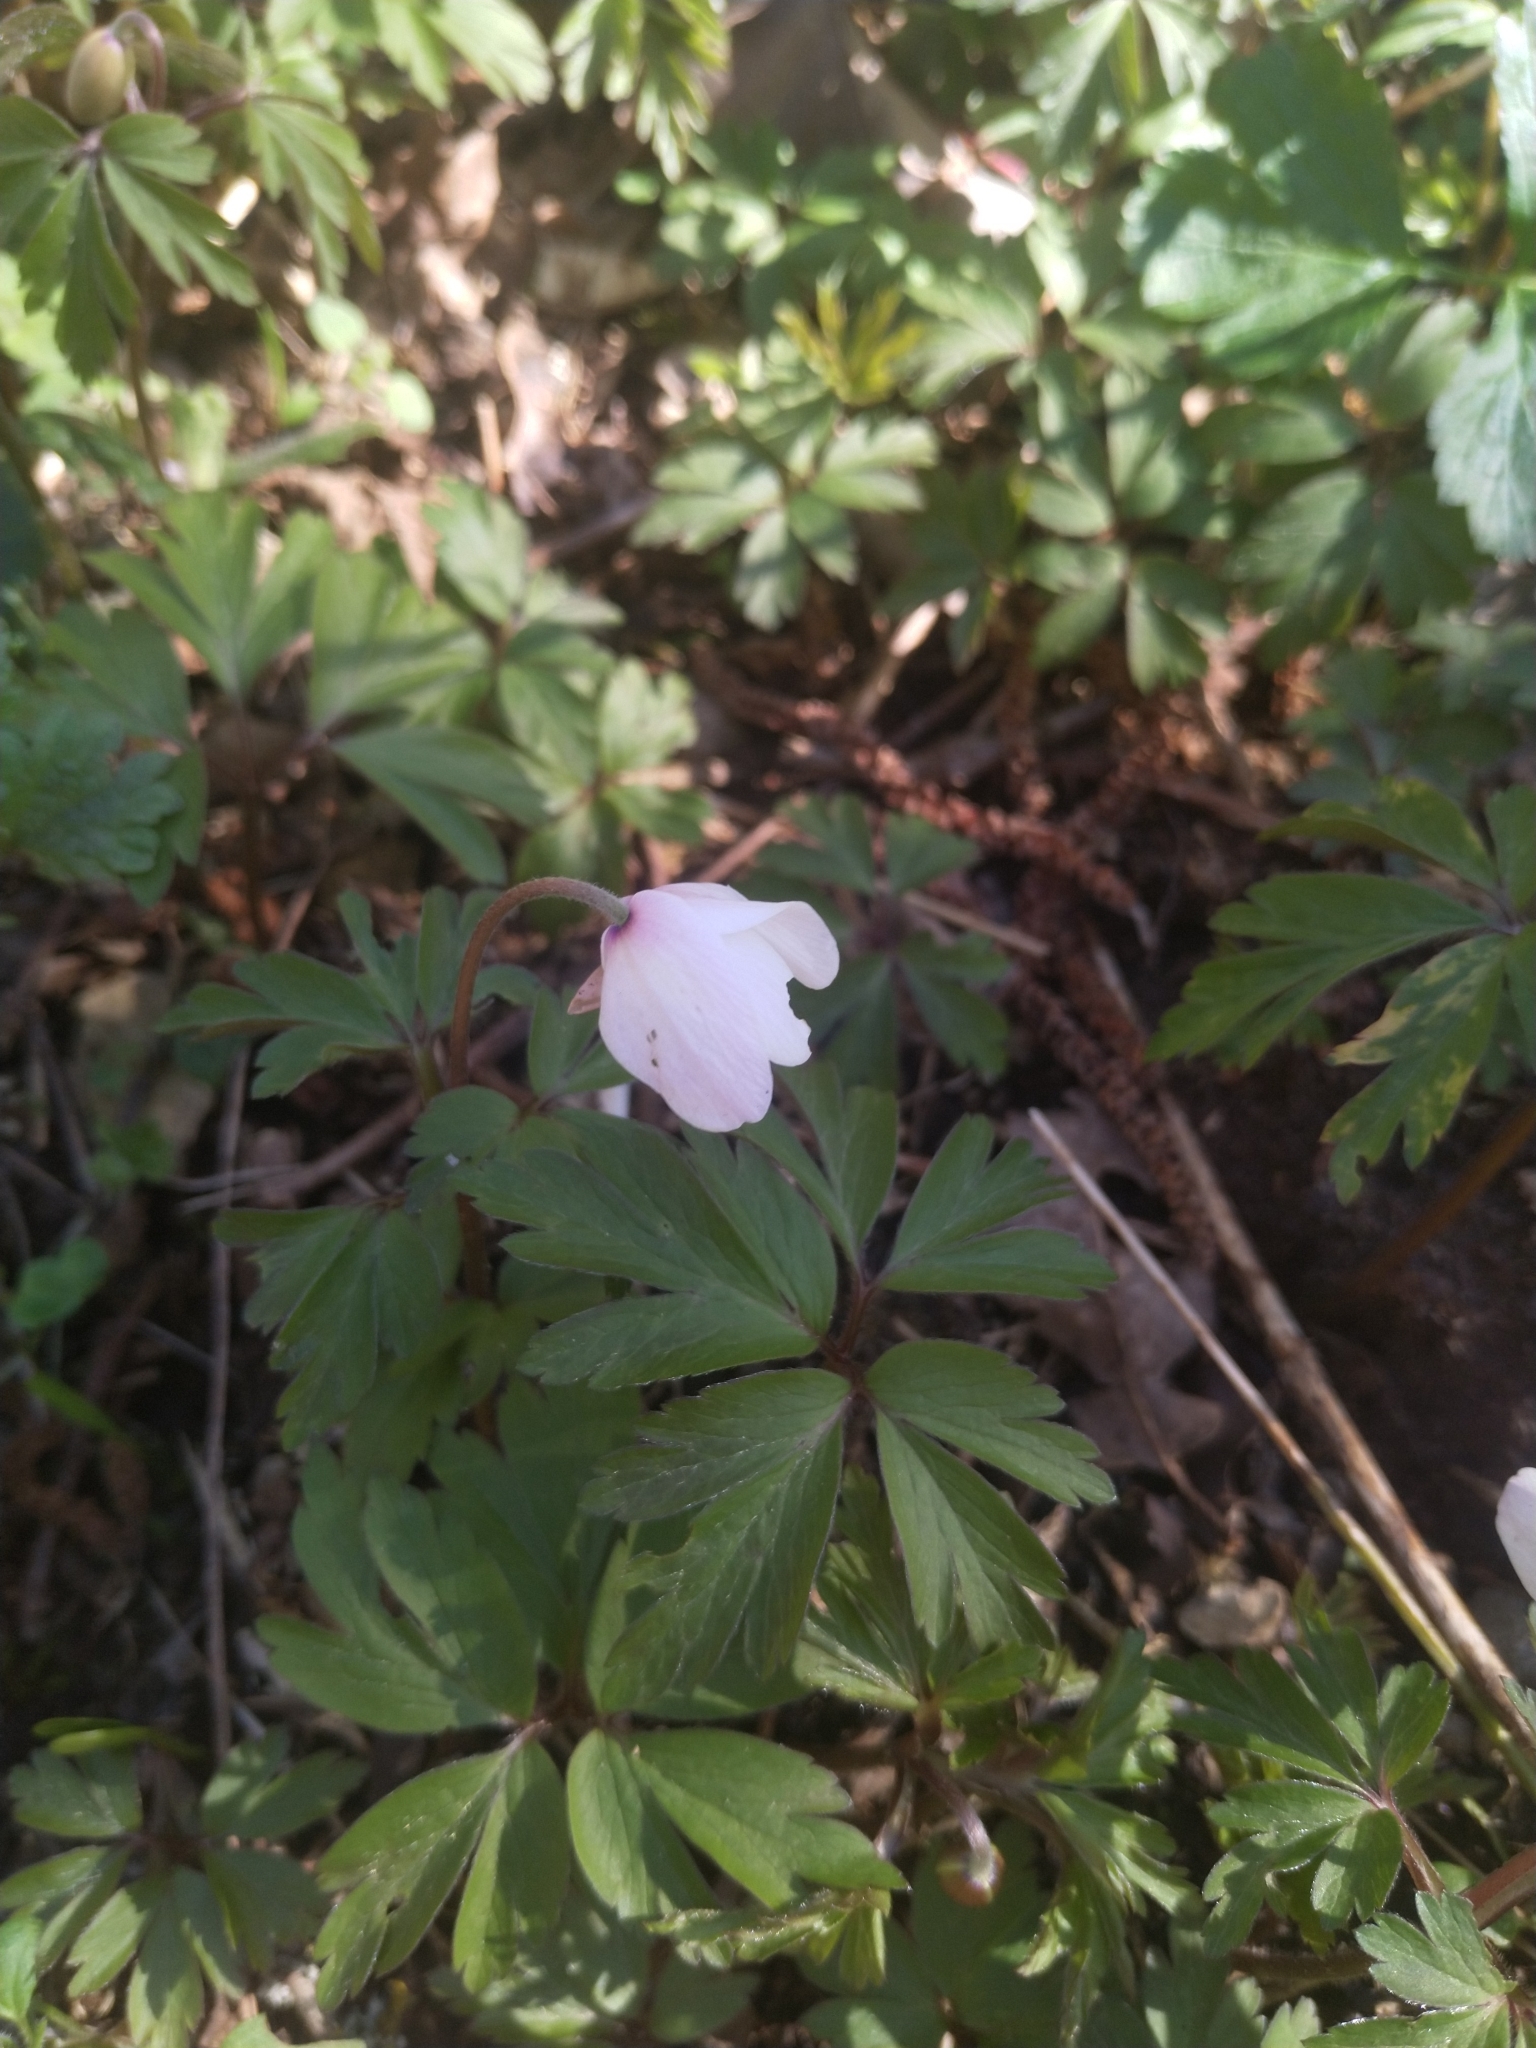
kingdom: Plantae
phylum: Tracheophyta
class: Magnoliopsida
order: Ranunculales
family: Ranunculaceae
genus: Anemone
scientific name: Anemone nemorosa
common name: Wood anemone
